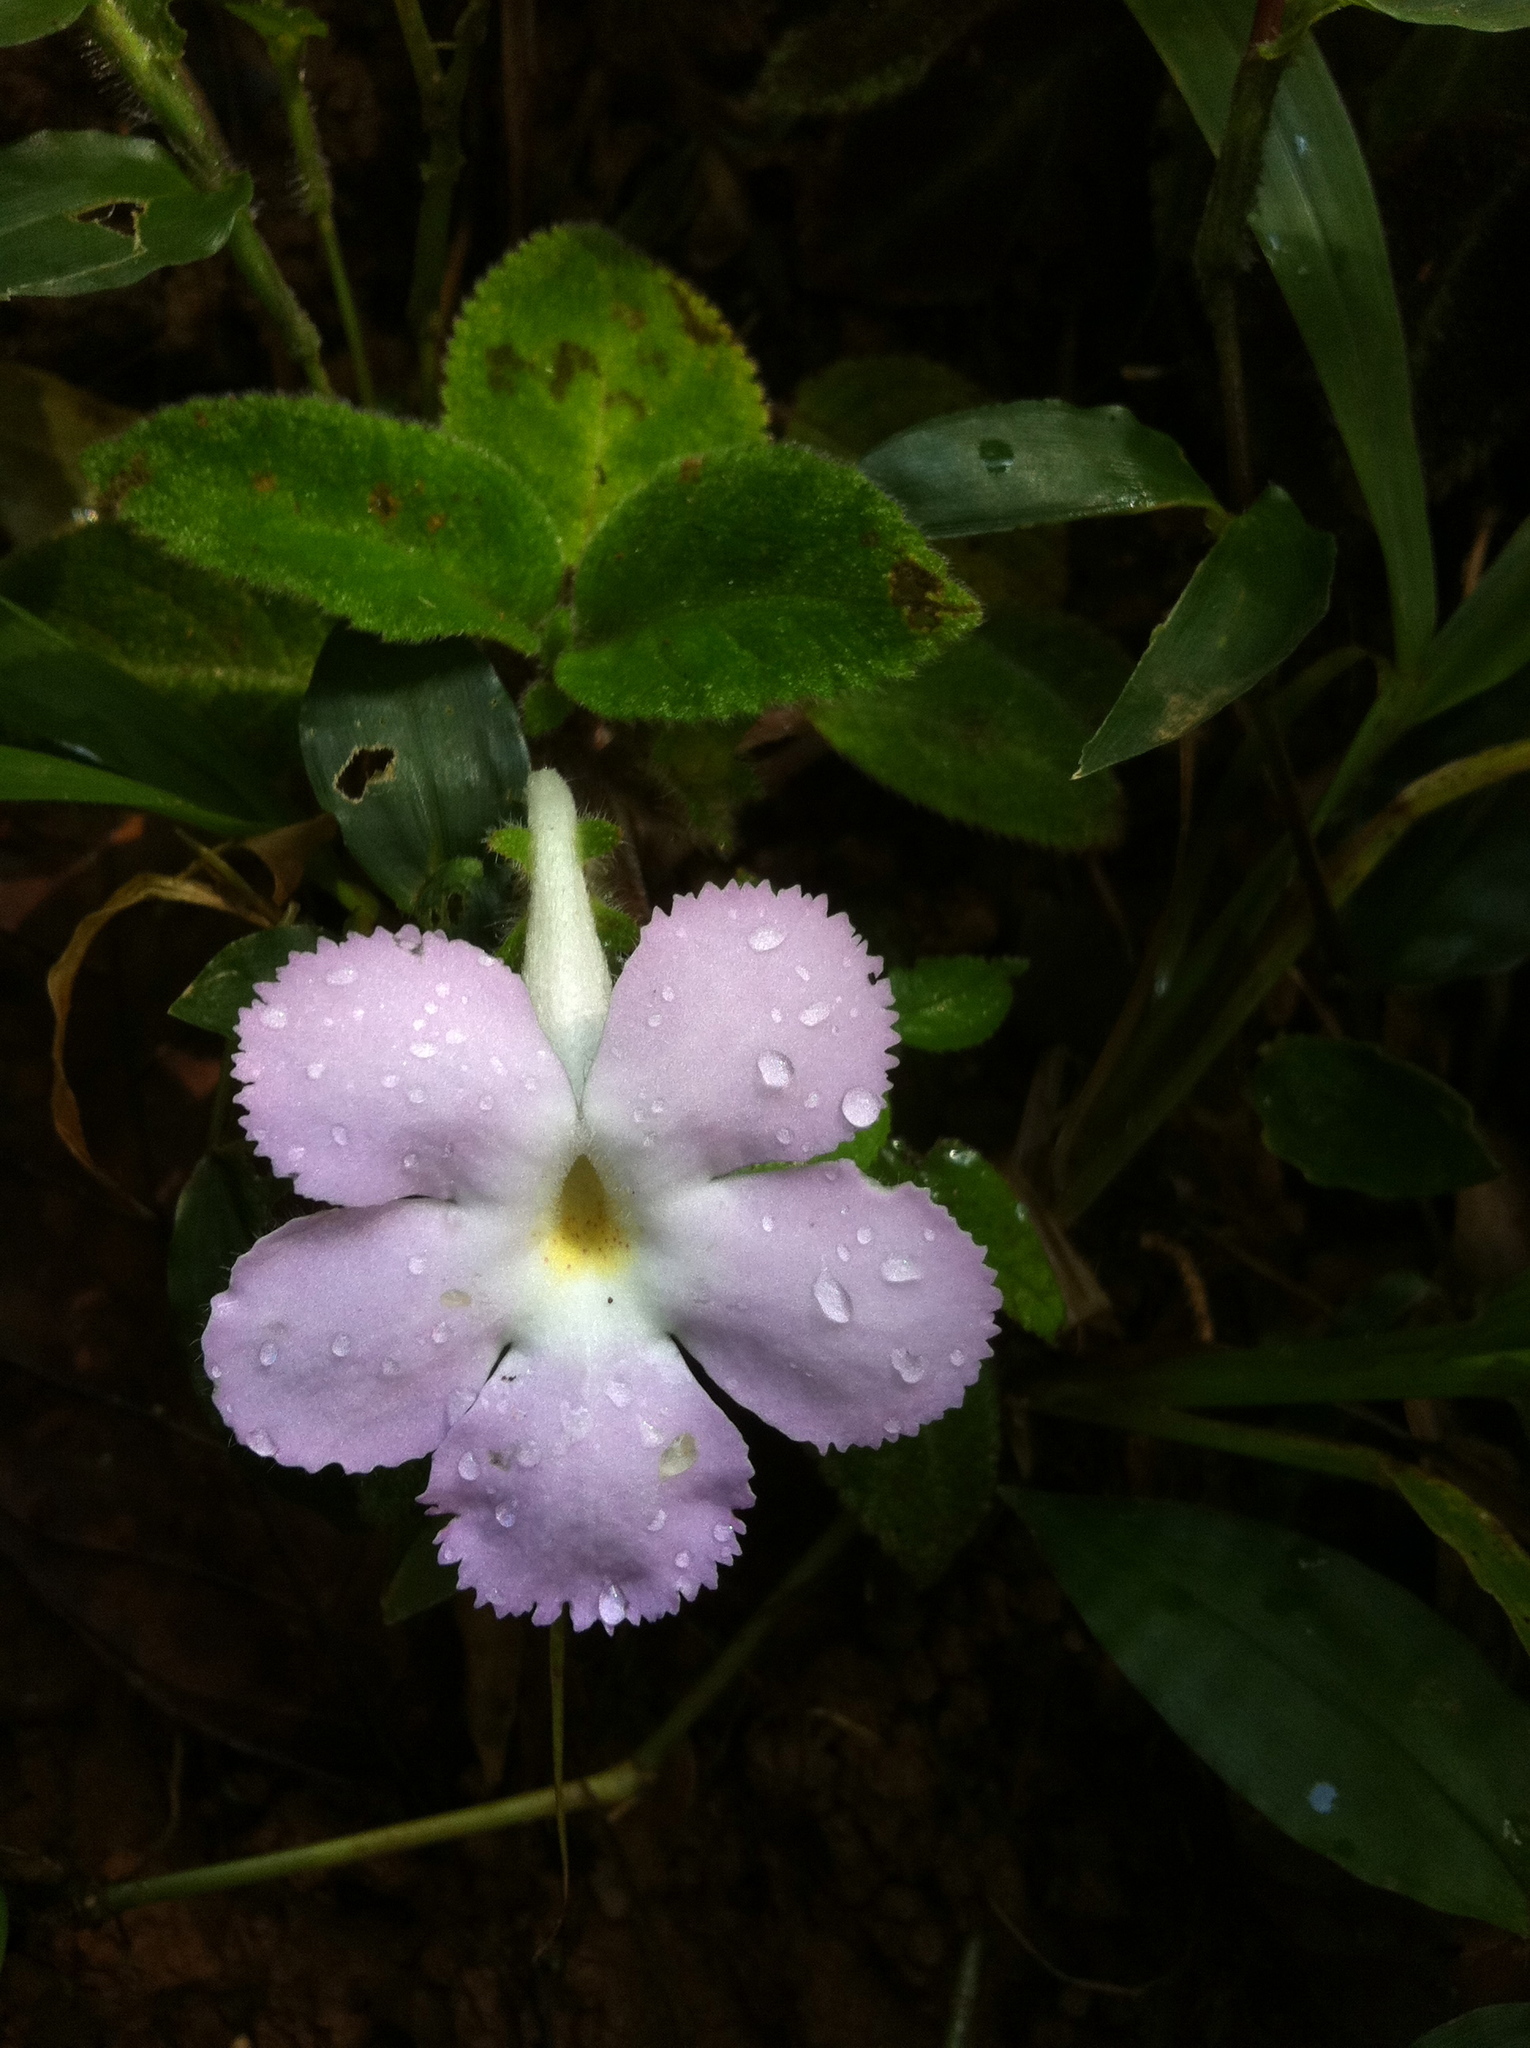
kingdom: Plantae
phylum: Tracheophyta
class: Magnoliopsida
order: Lamiales
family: Gesneriaceae
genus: Episcia
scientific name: Episcia lilacina
